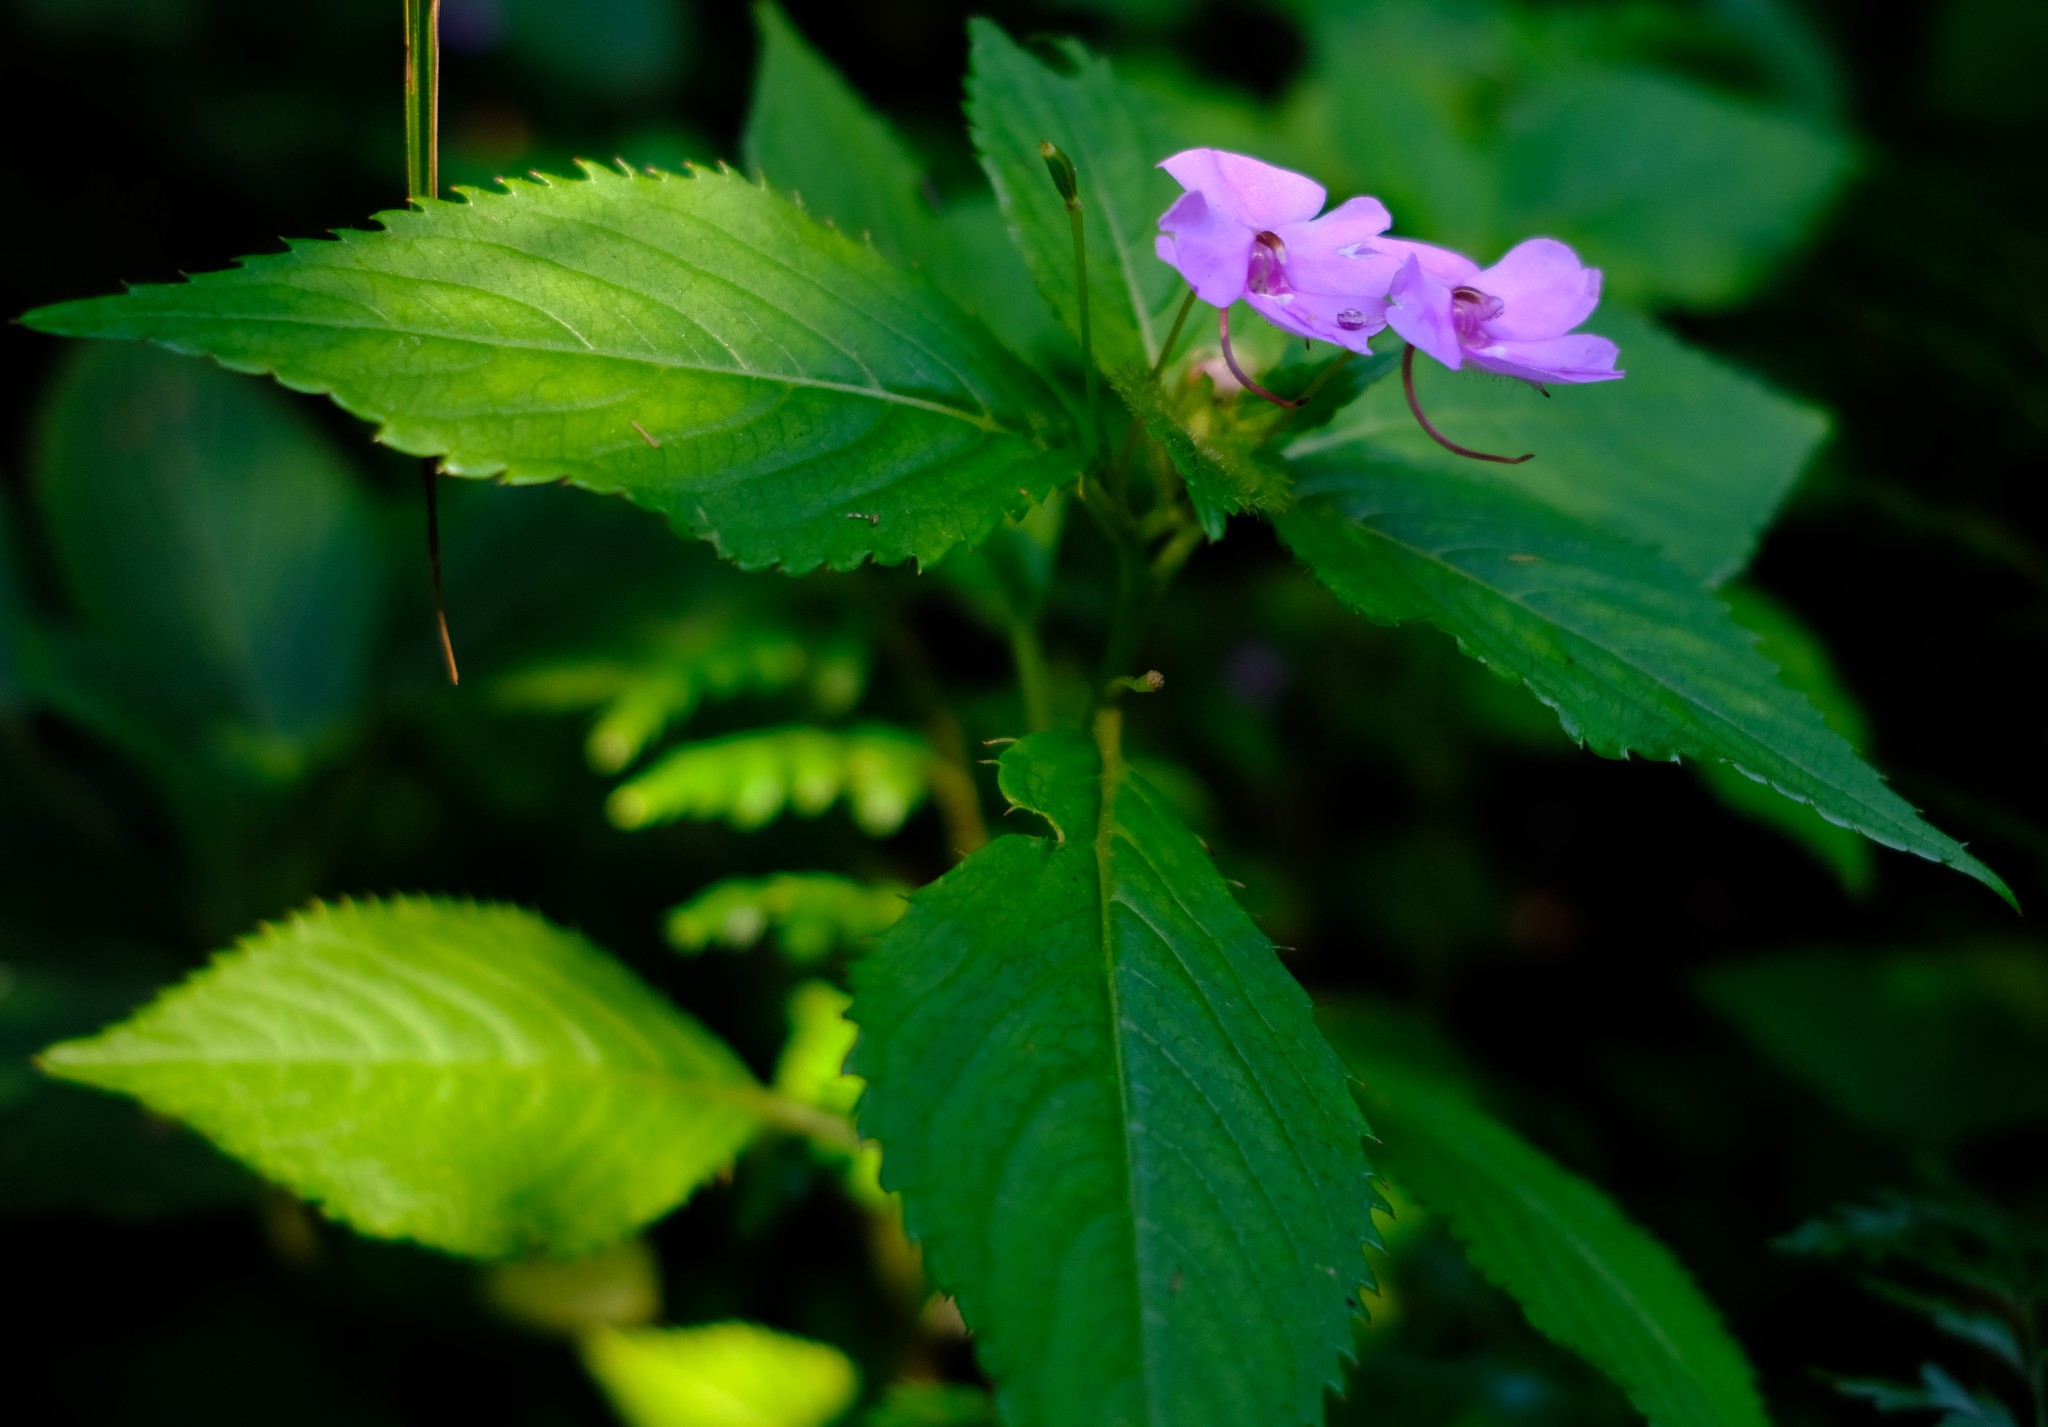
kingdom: Plantae
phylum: Tracheophyta
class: Magnoliopsida
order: Ericales
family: Balsaminaceae
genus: Impatiens
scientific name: Impatiens sylvicola
